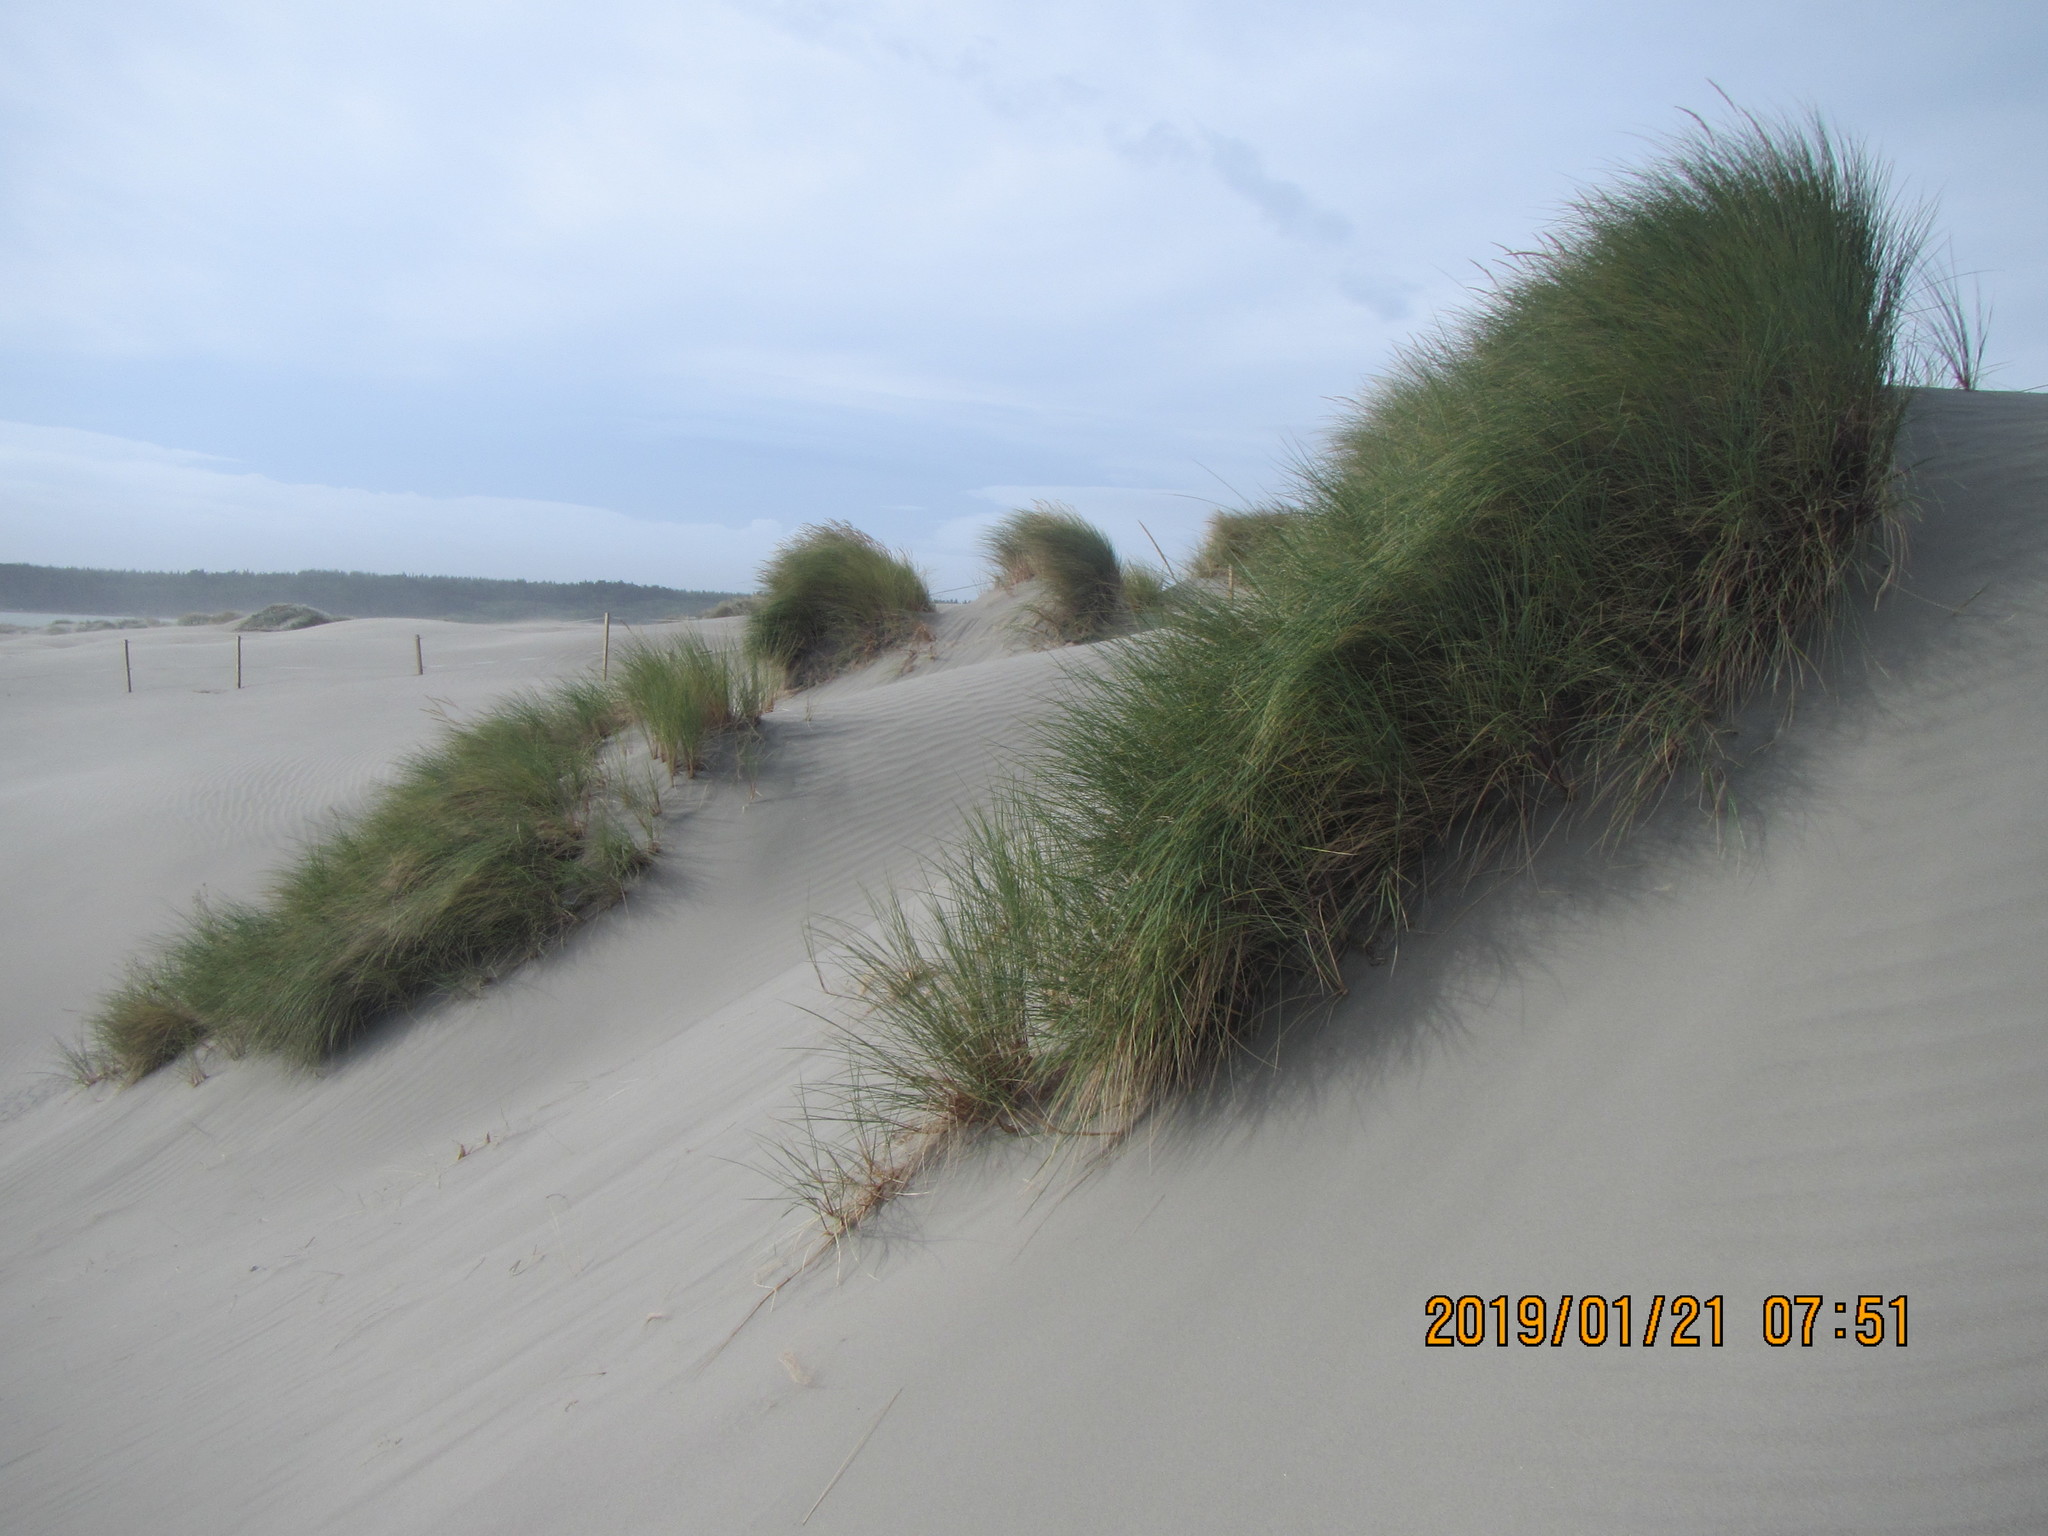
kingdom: Plantae
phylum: Tracheophyta
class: Liliopsida
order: Poales
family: Poaceae
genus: Calamagrostis
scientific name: Calamagrostis arenaria
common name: European beachgrass
